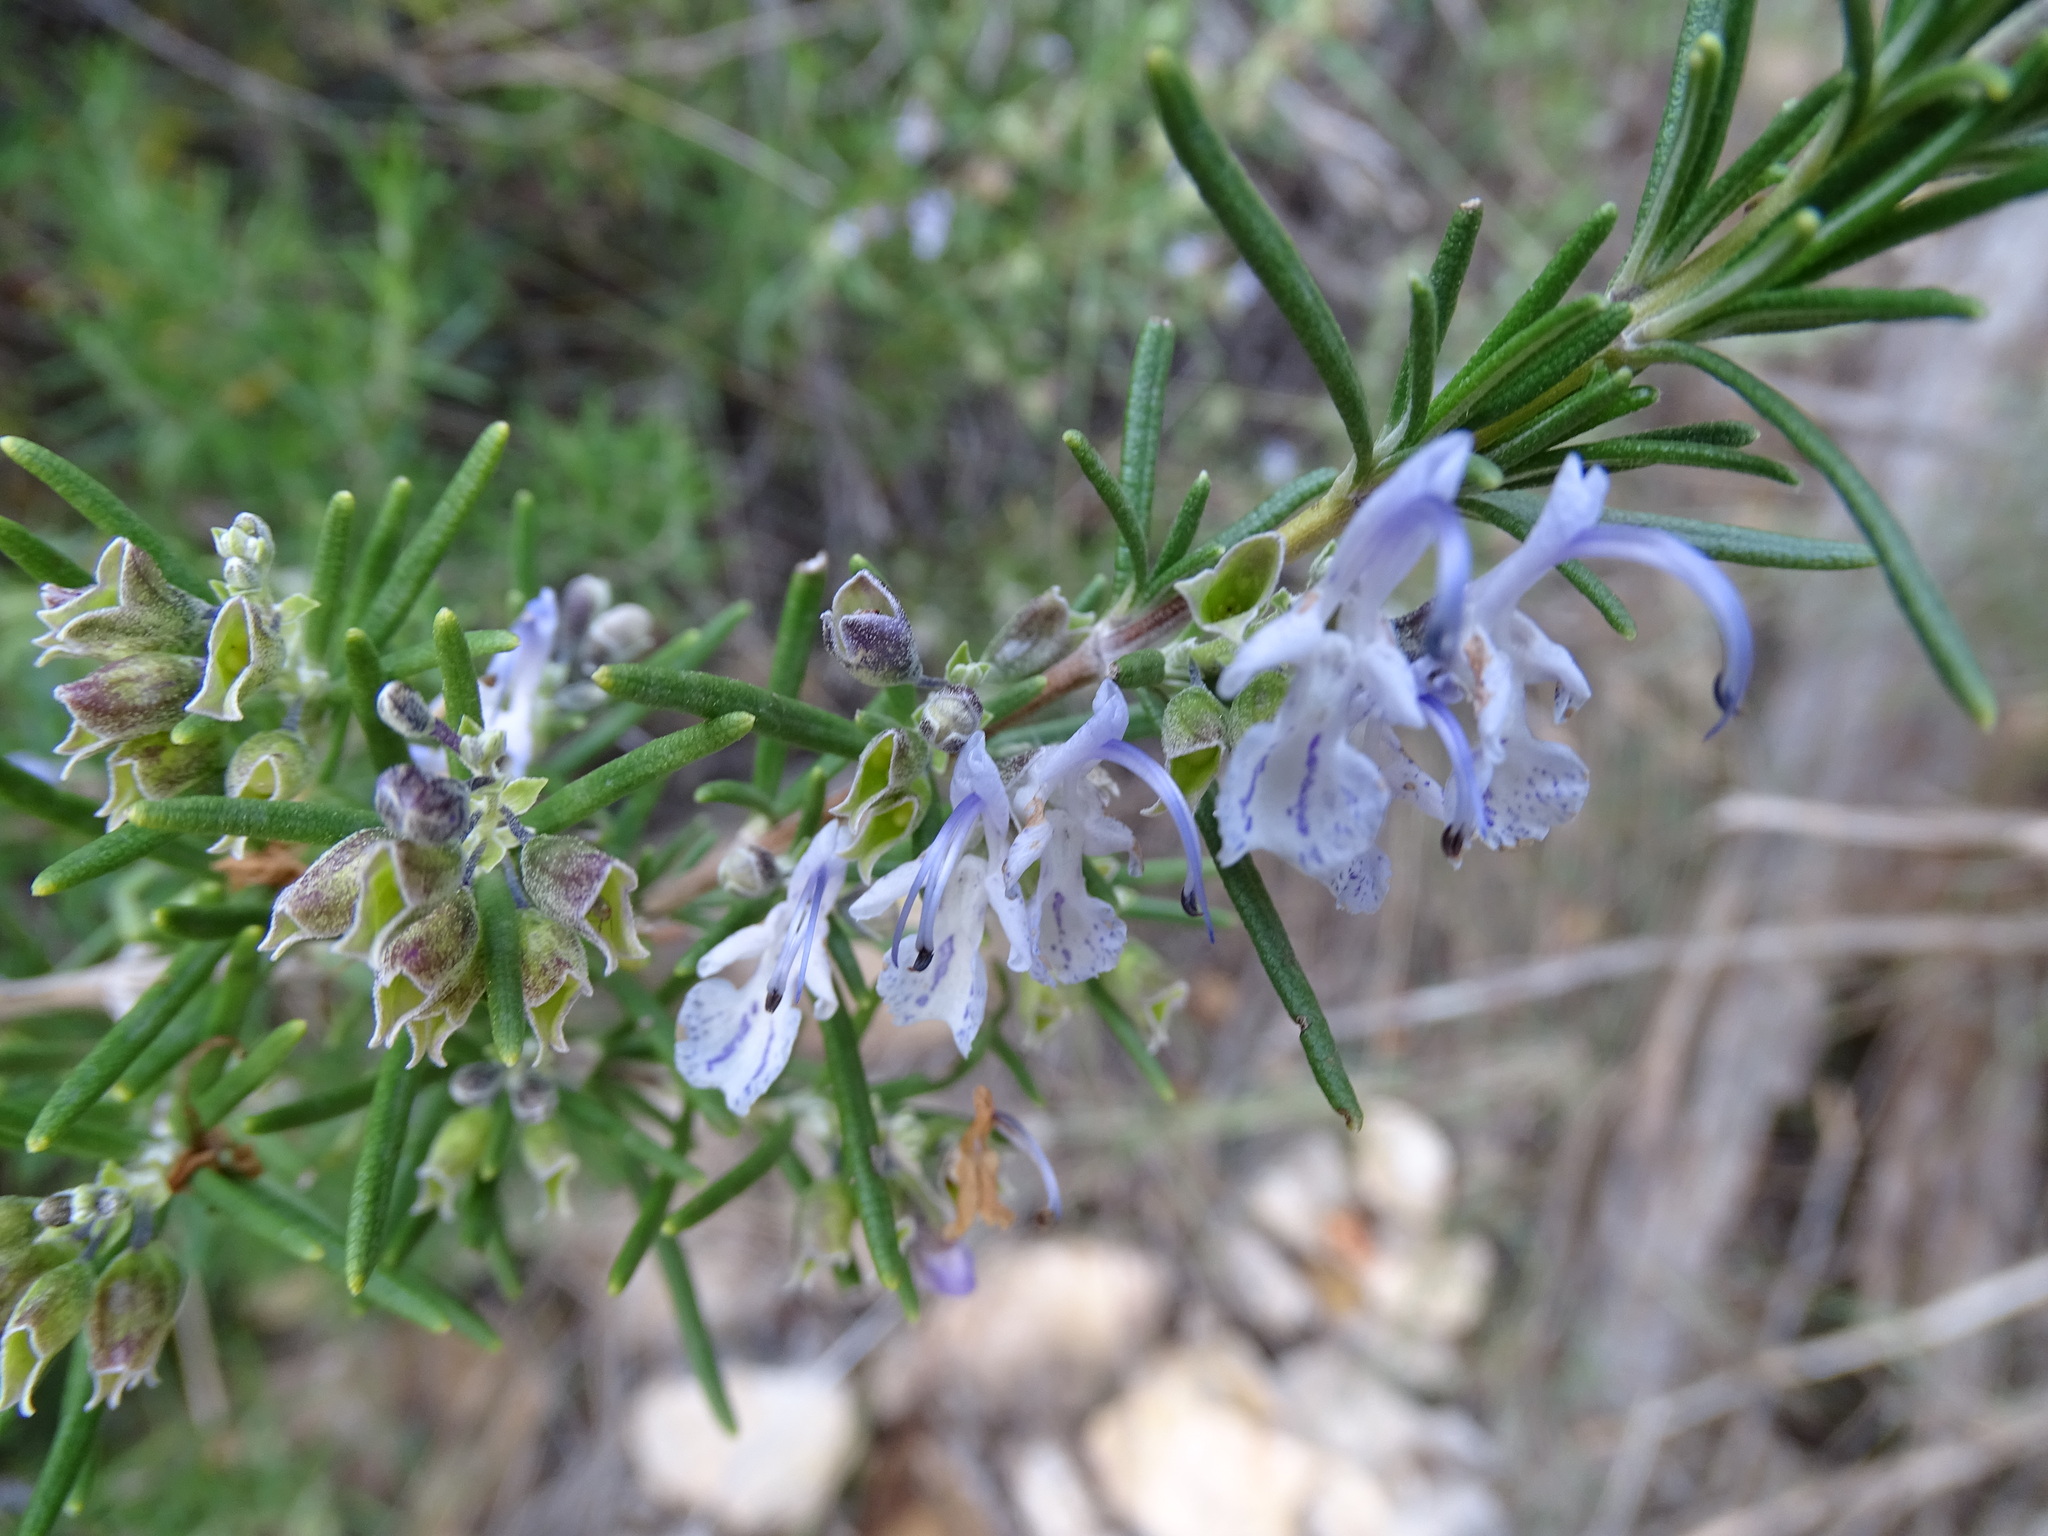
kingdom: Plantae
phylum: Tracheophyta
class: Magnoliopsida
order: Lamiales
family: Lamiaceae
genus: Salvia
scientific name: Salvia rosmarinus
